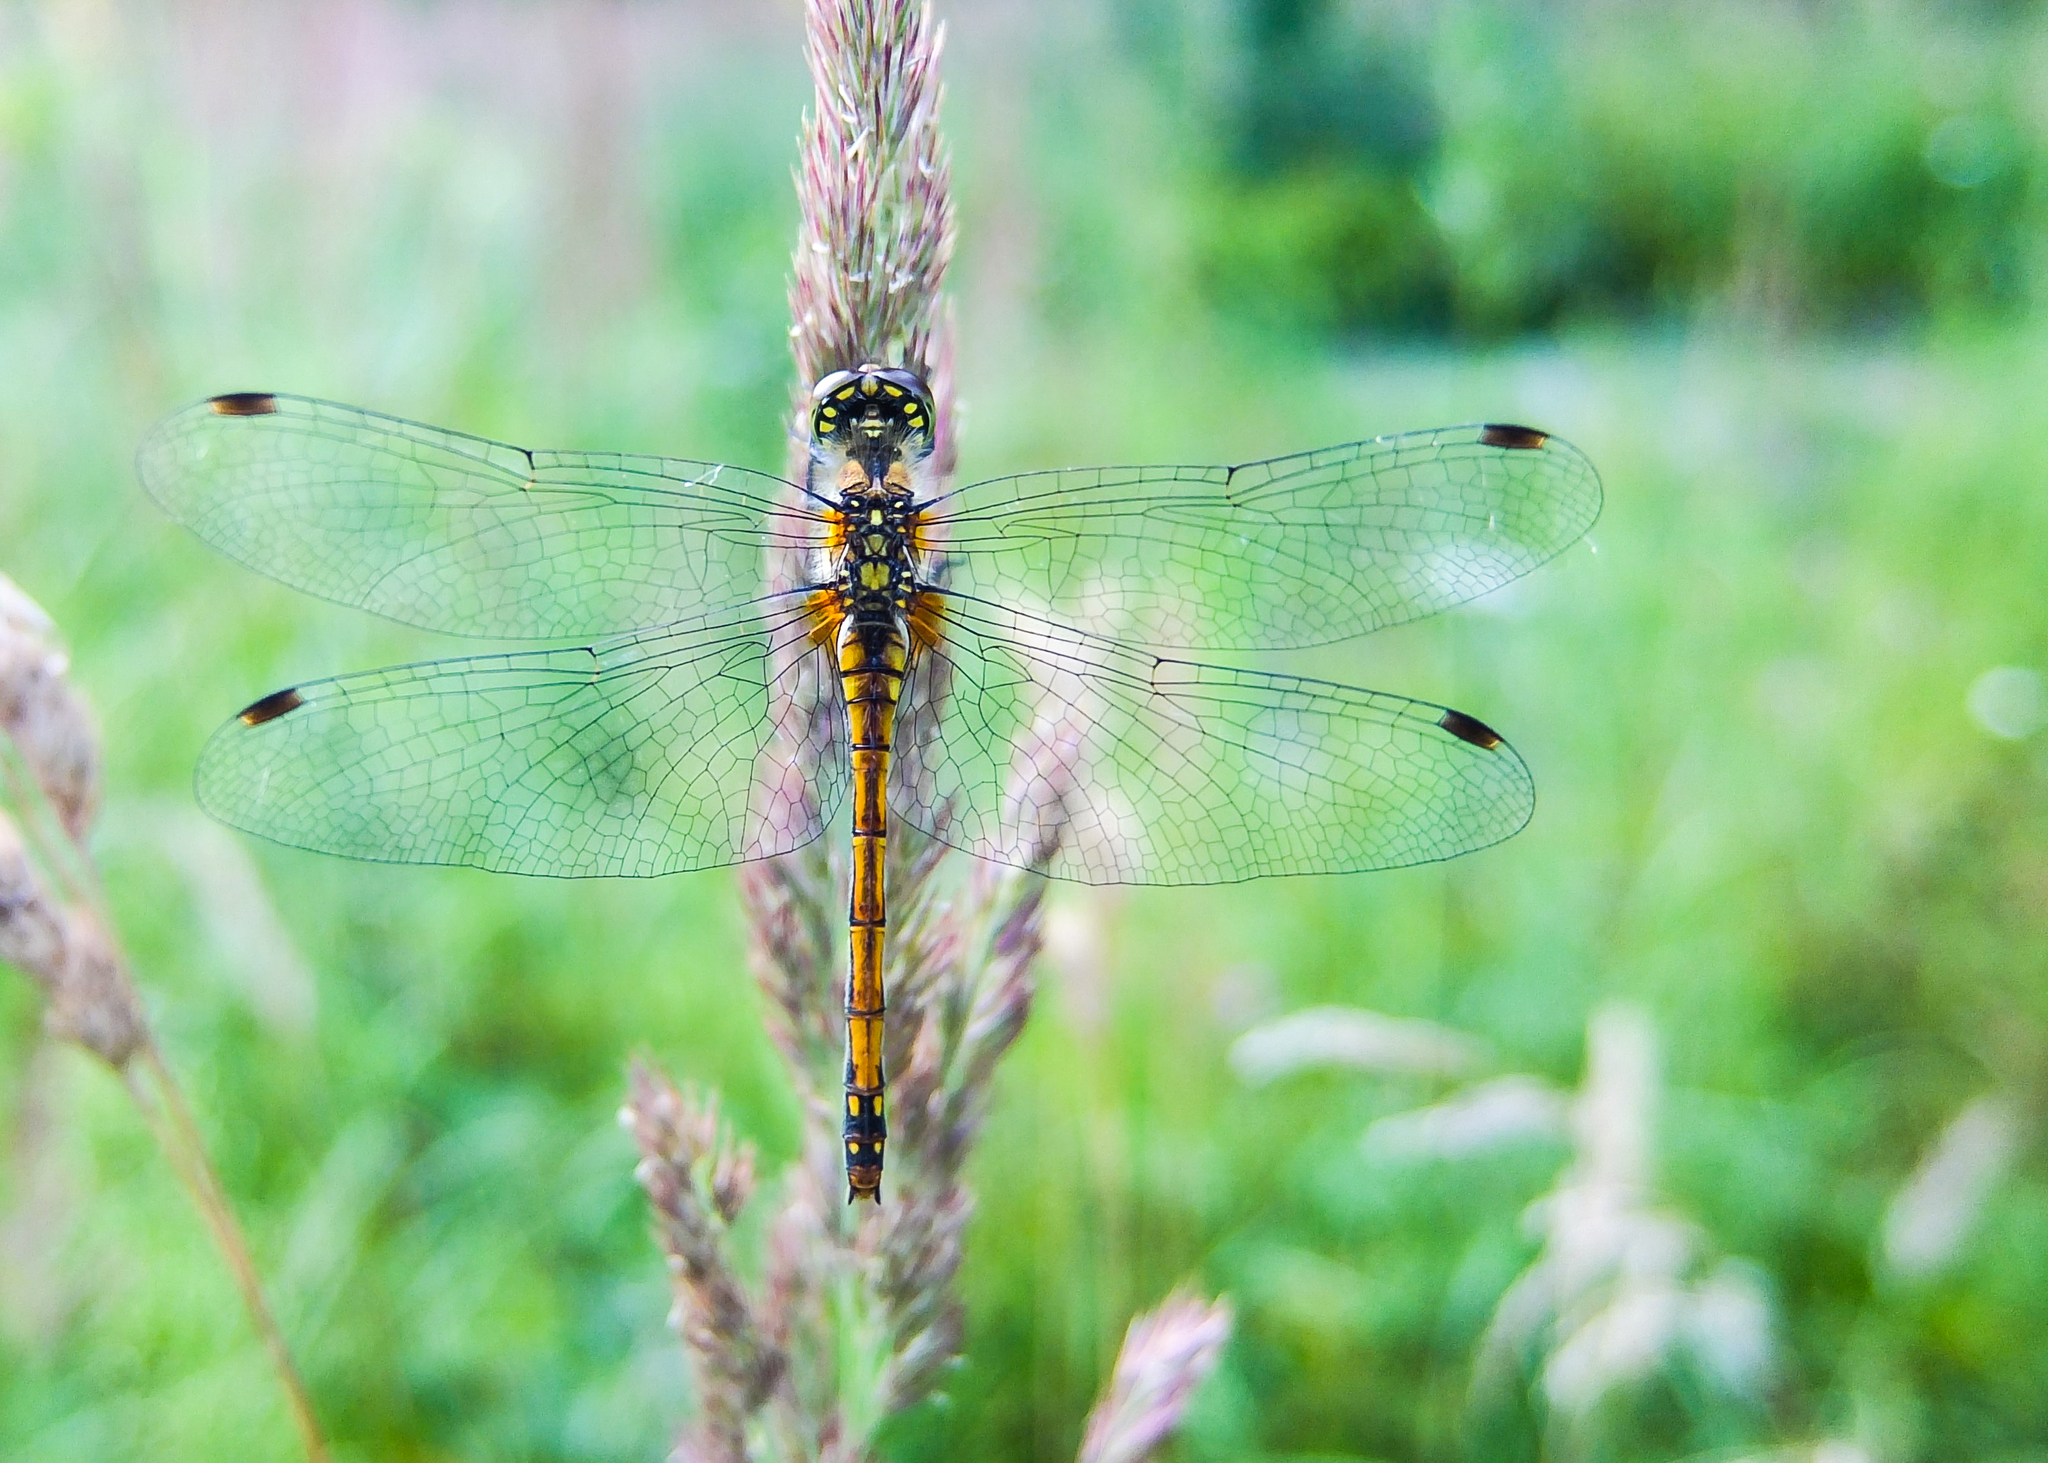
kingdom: Animalia
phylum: Arthropoda
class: Insecta
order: Odonata
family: Libellulidae
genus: Sympetrum
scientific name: Sympetrum danae
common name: Black darter
